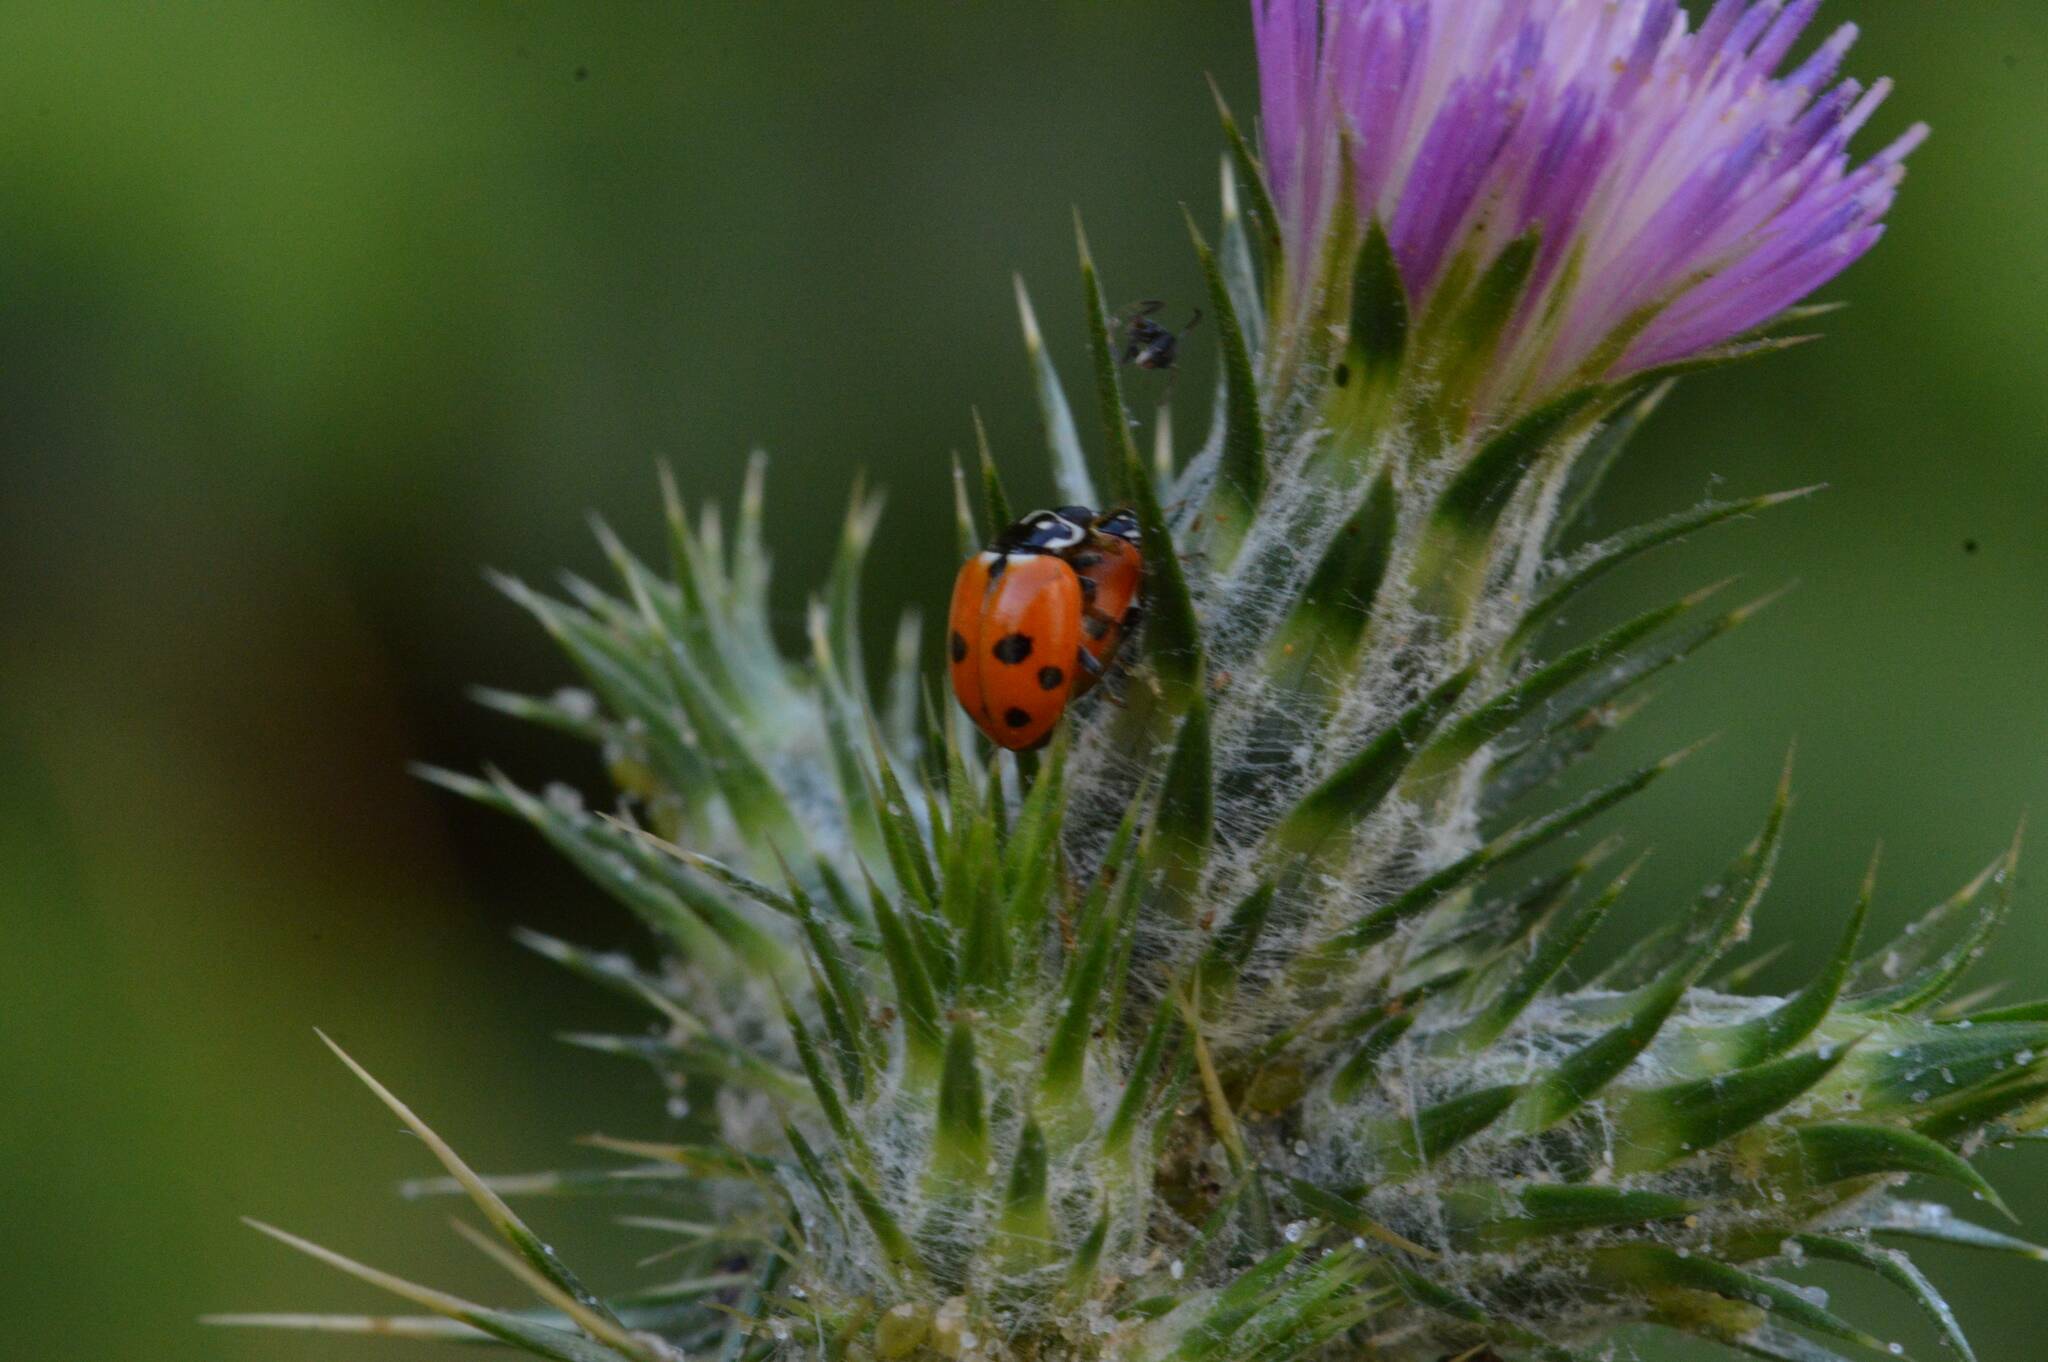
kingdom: Animalia
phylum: Arthropoda
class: Insecta
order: Coleoptera
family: Coccinellidae
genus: Hippodamia
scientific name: Hippodamia variegata
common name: Ladybird beetle
